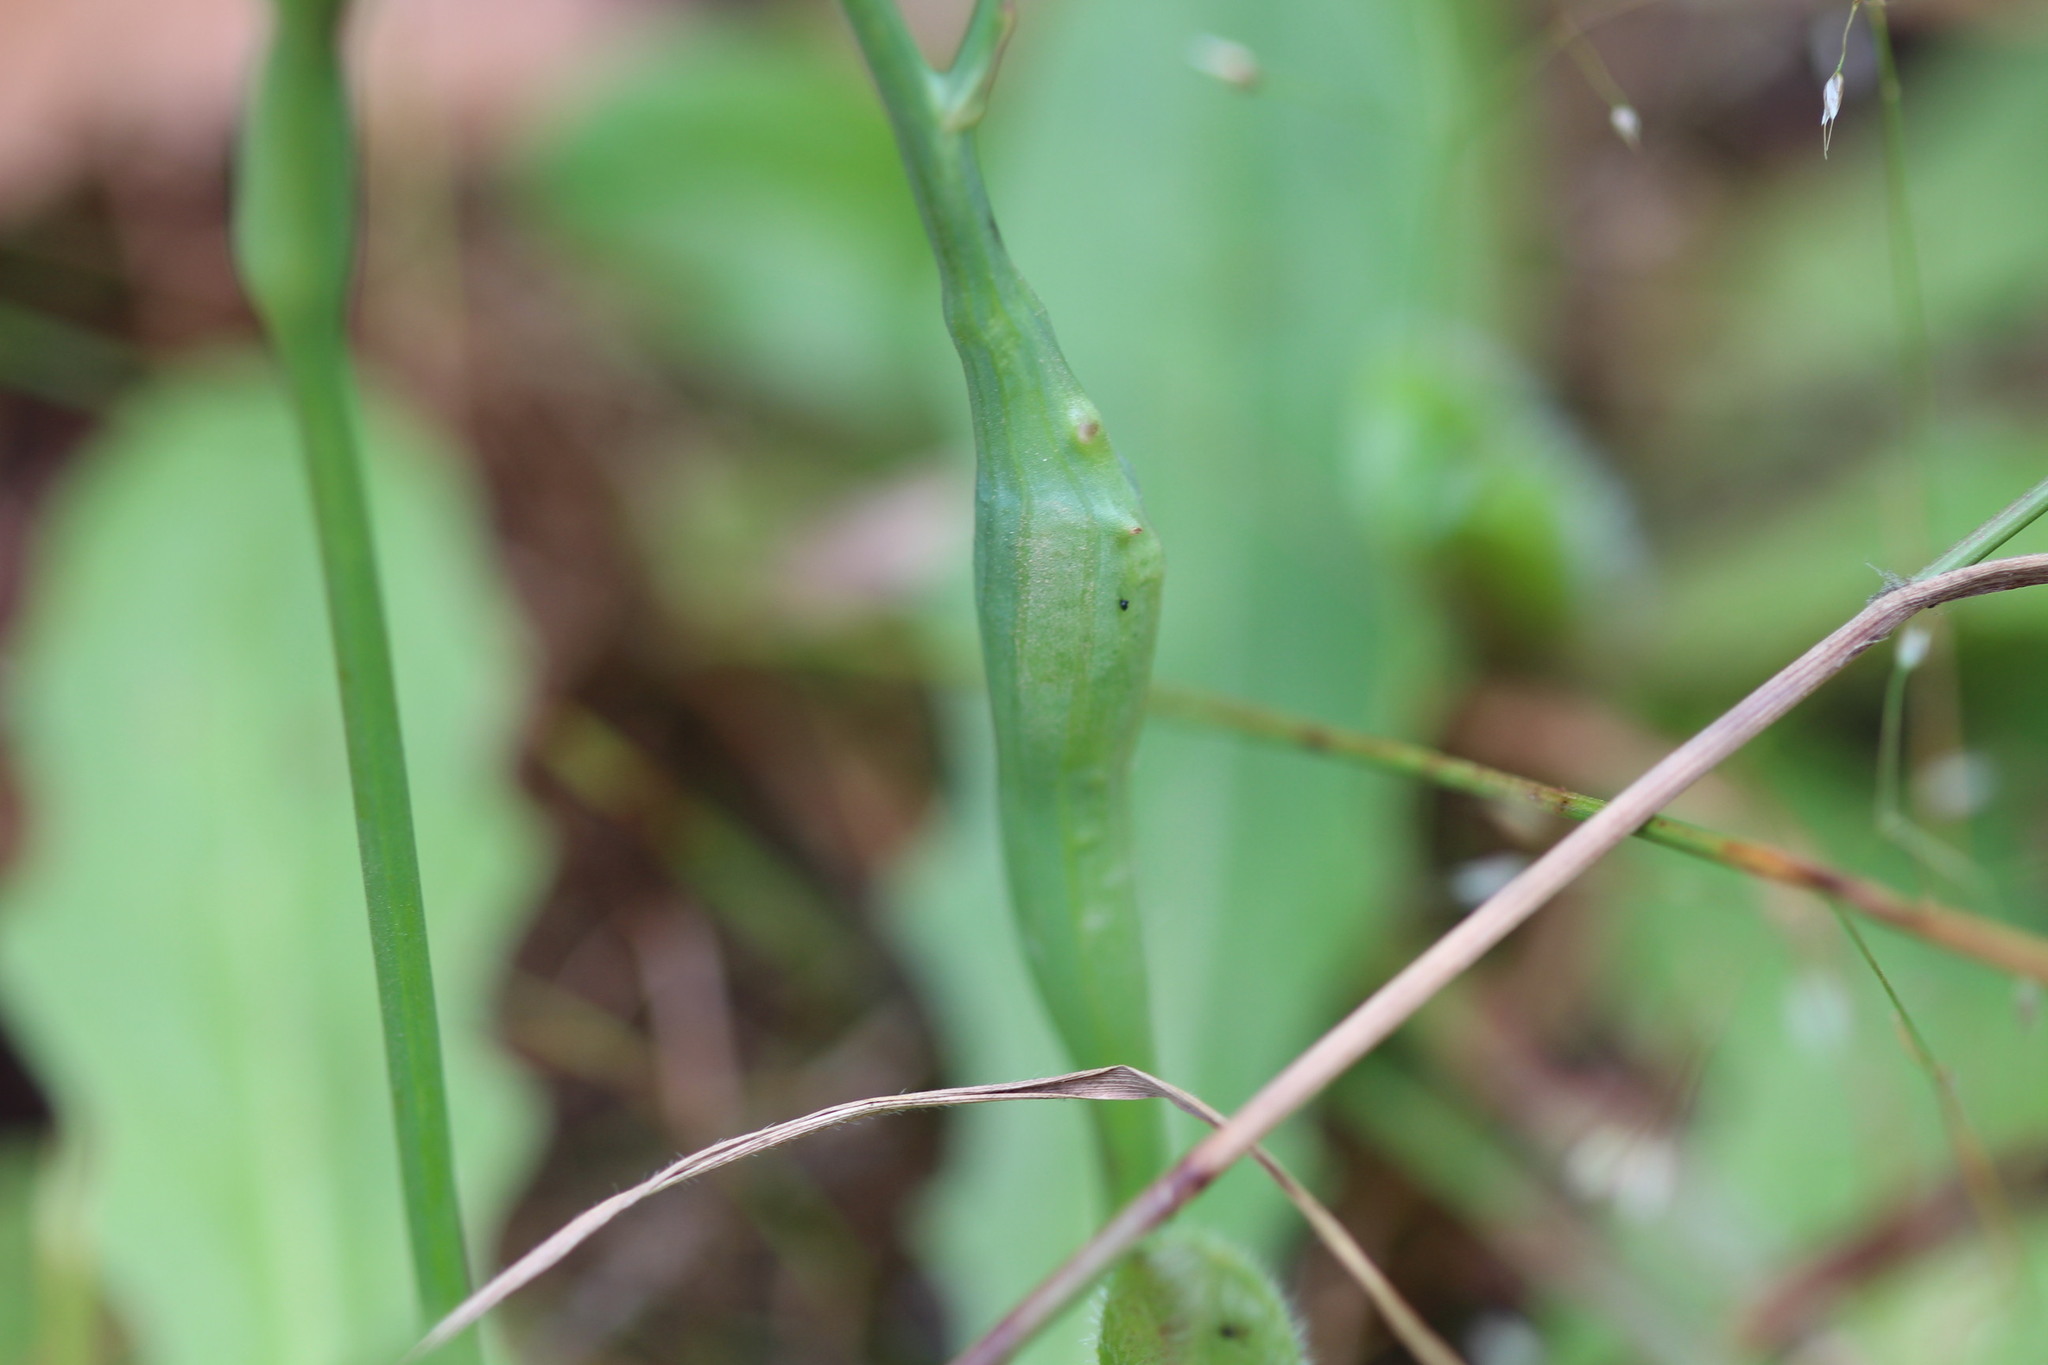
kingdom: Animalia
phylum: Arthropoda
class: Insecta
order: Hymenoptera
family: Cynipidae
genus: Phanacis
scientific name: Phanacis hypochoeridis
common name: Gall wasp
